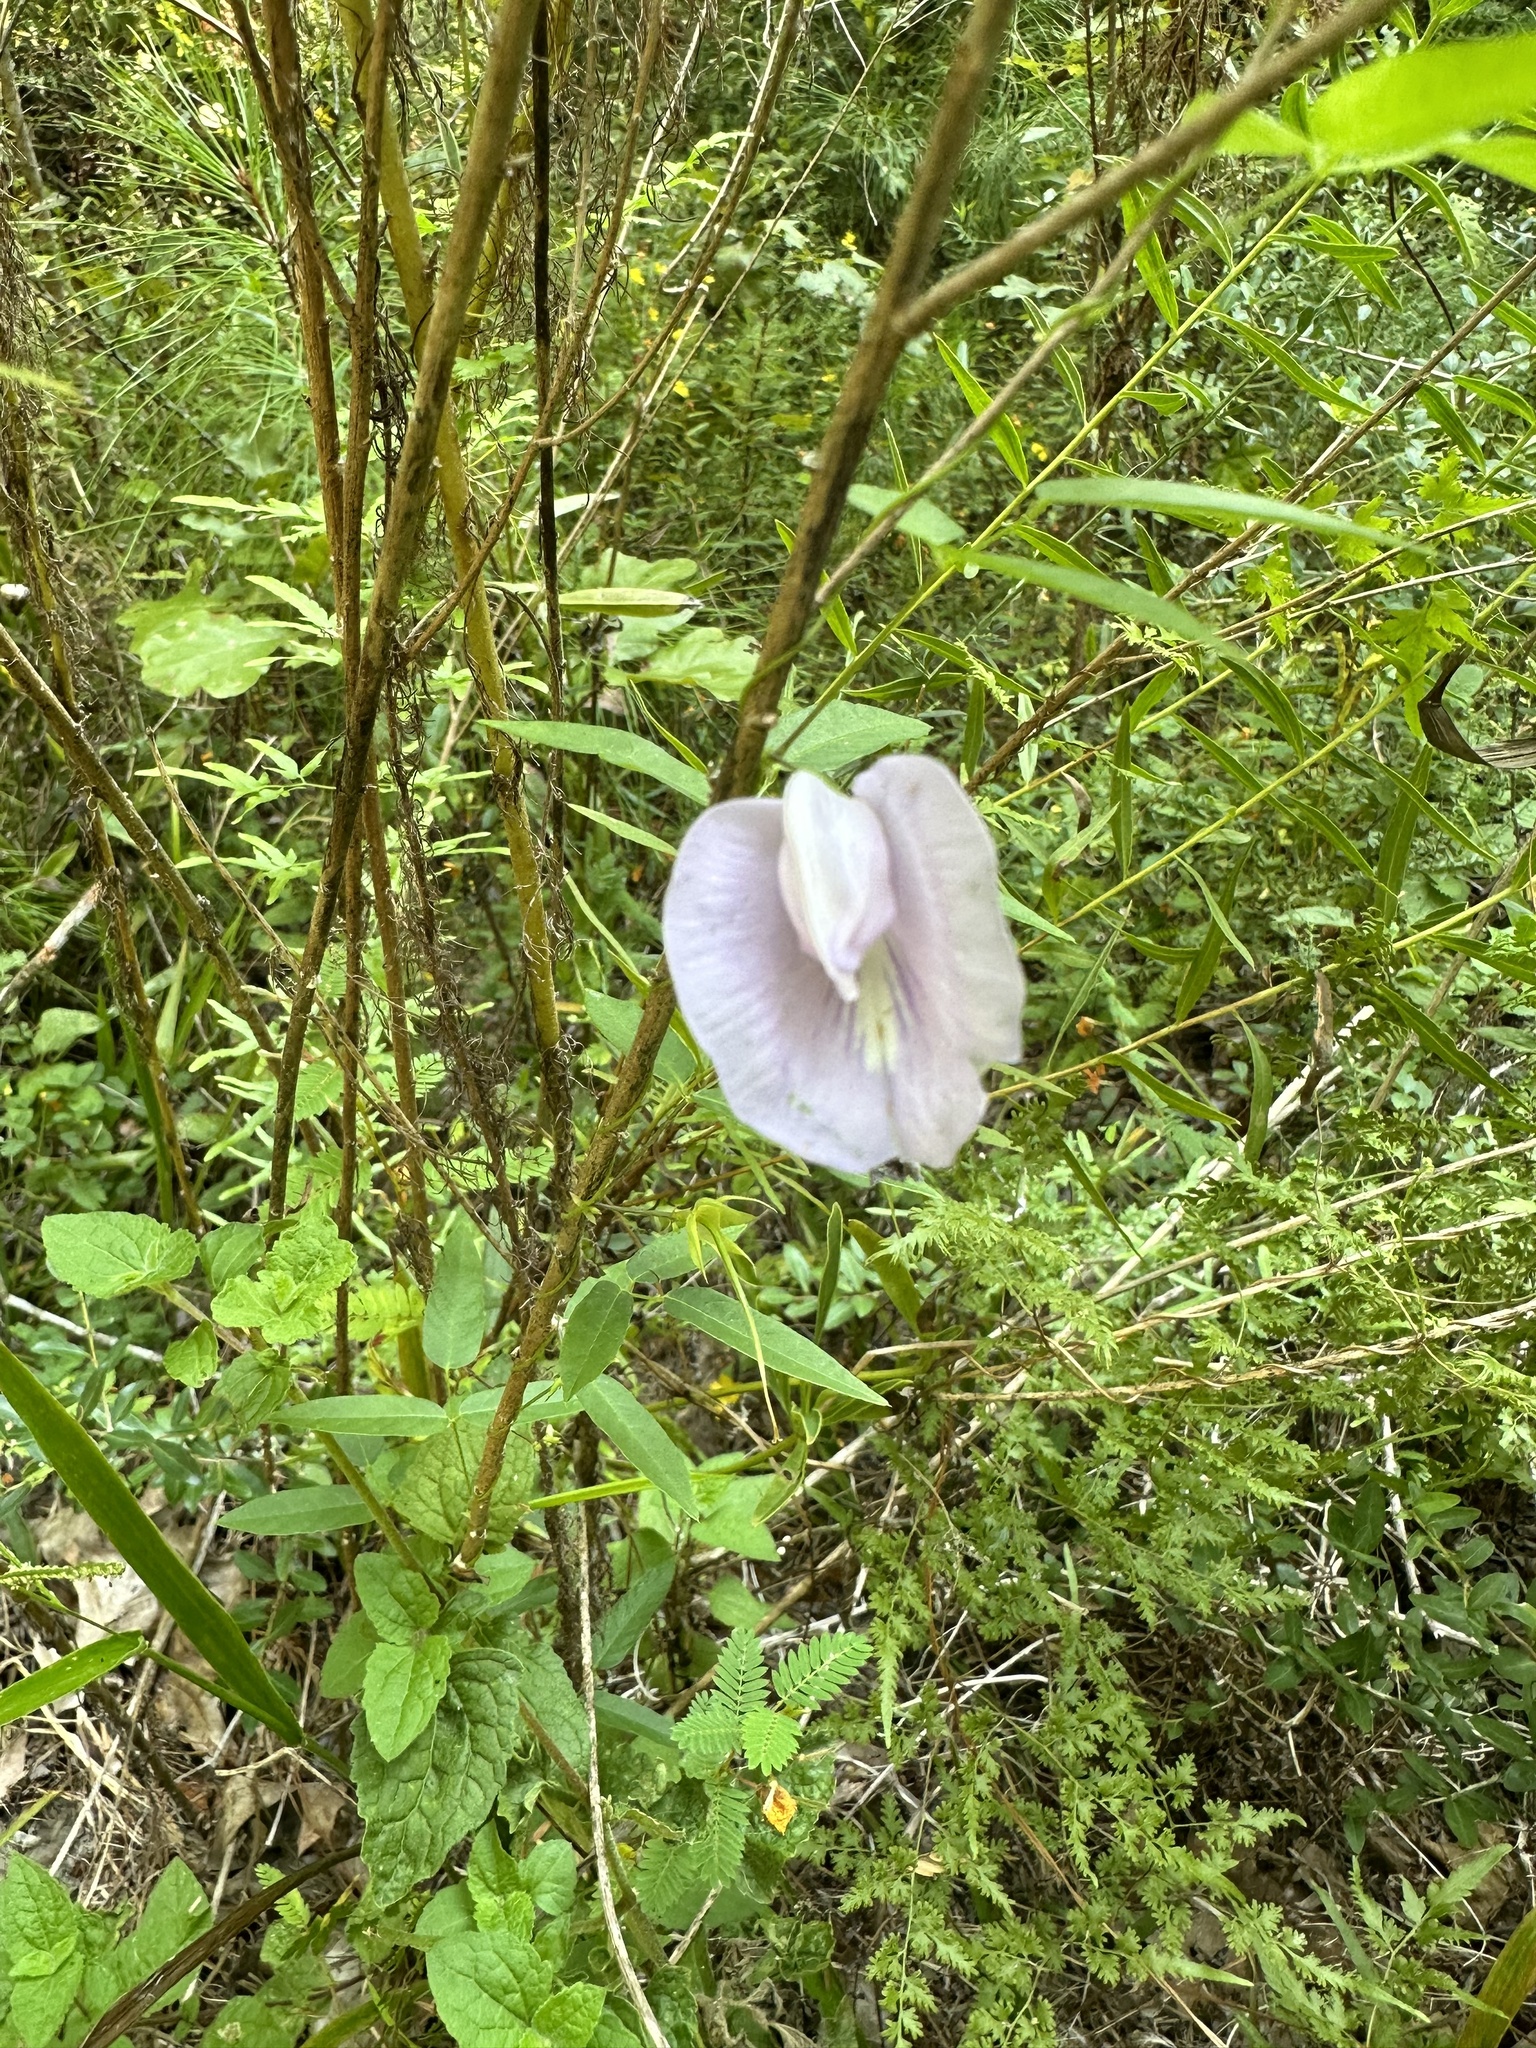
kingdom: Plantae
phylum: Tracheophyta
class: Magnoliopsida
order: Fabales
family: Fabaceae
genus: Centrosema
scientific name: Centrosema virginianum
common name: Butterfly-pea
